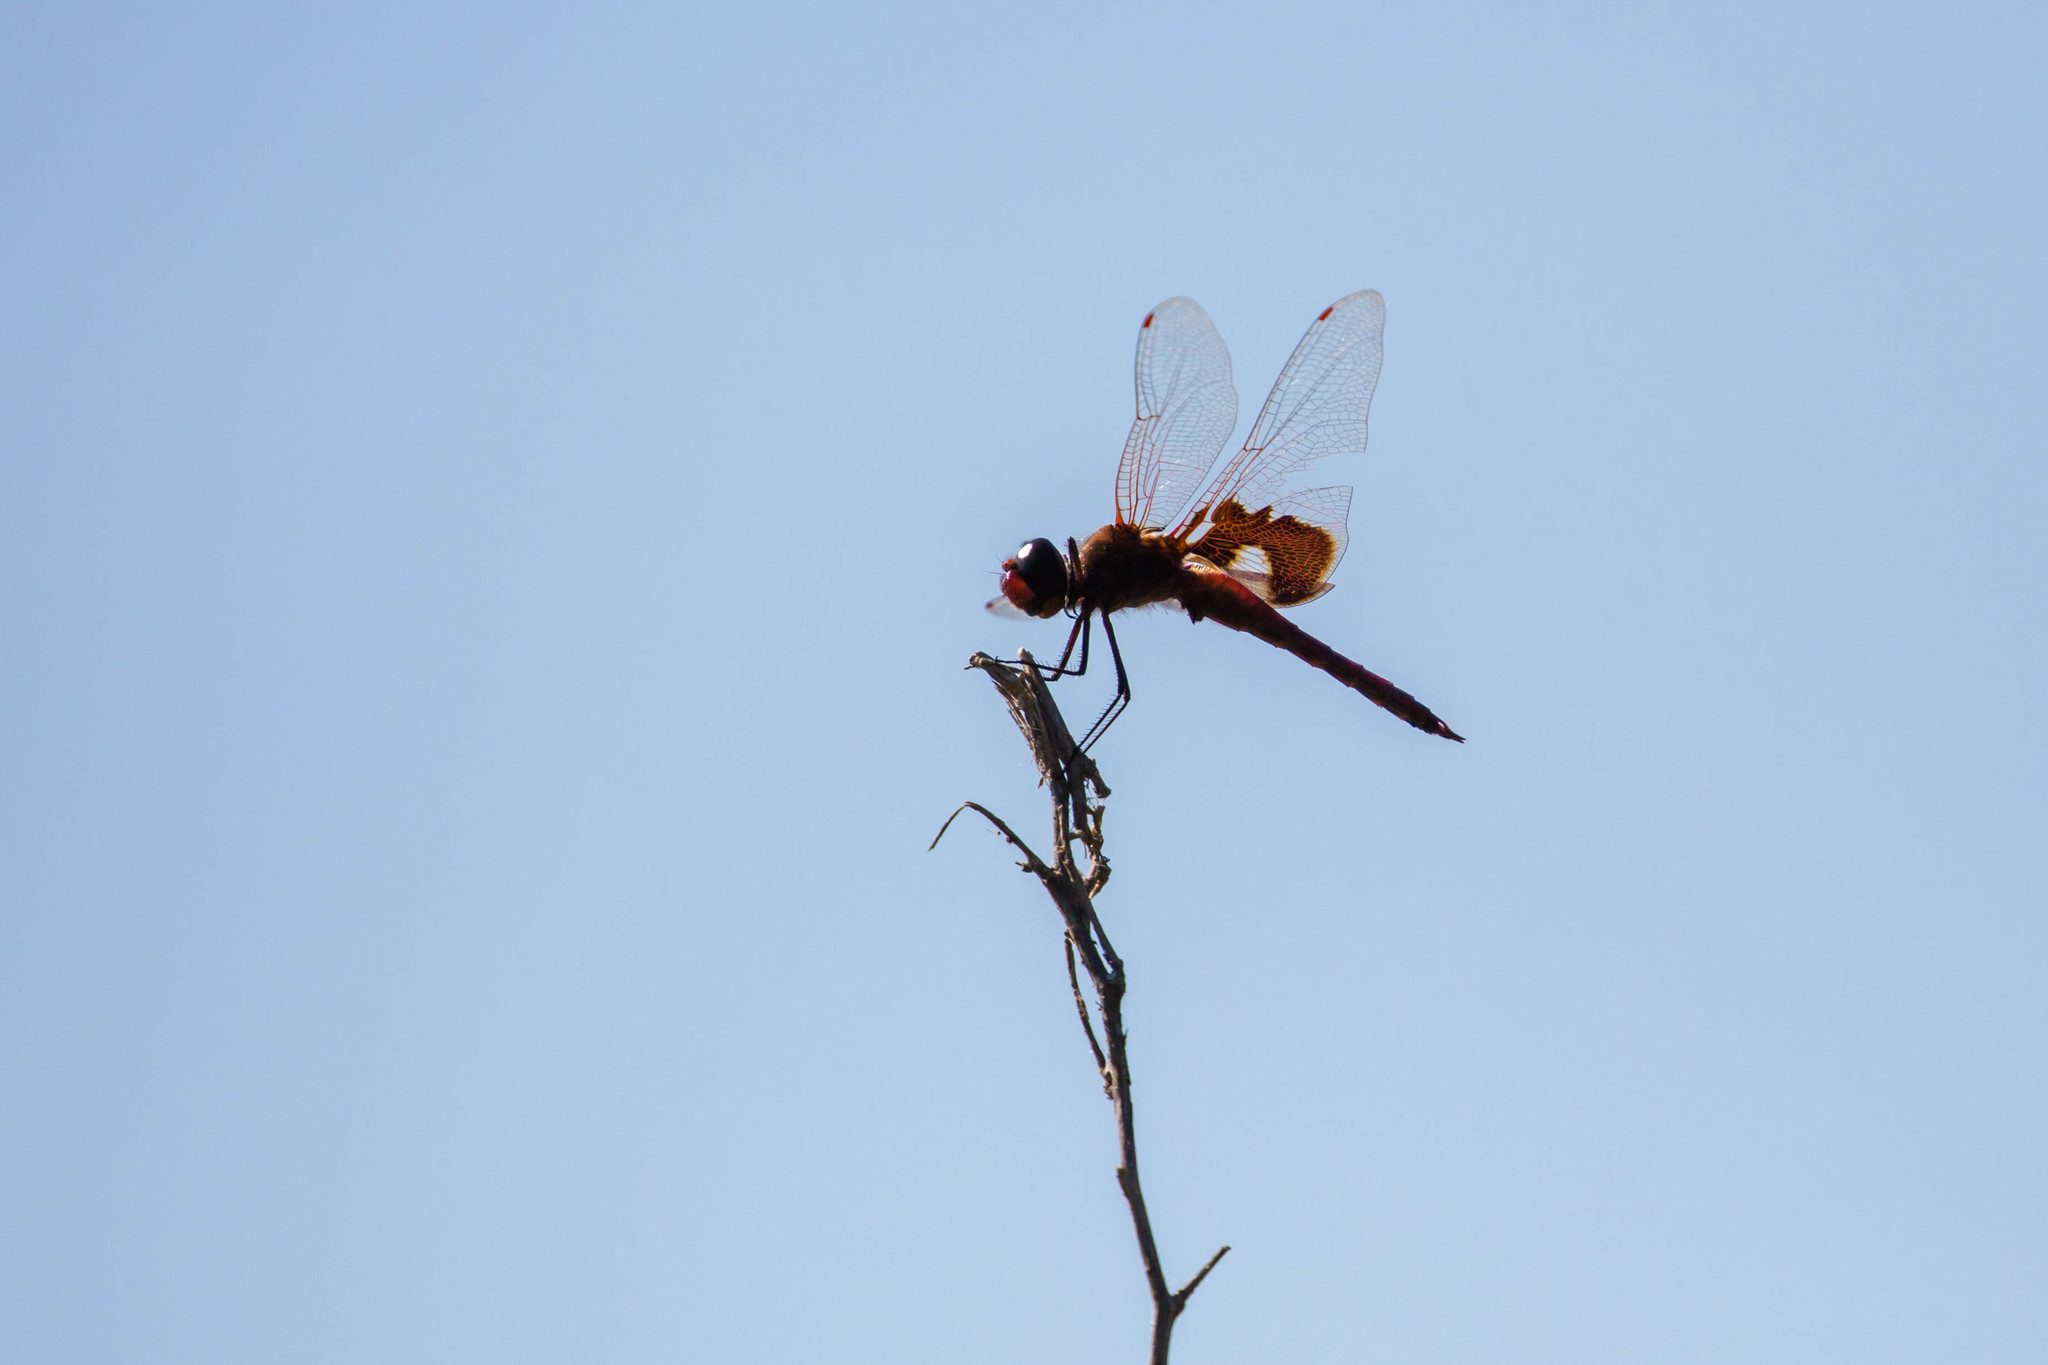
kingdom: Animalia
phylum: Arthropoda
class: Insecta
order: Odonata
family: Libellulidae
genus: Tramea
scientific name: Tramea onusta
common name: Red saddlebags
